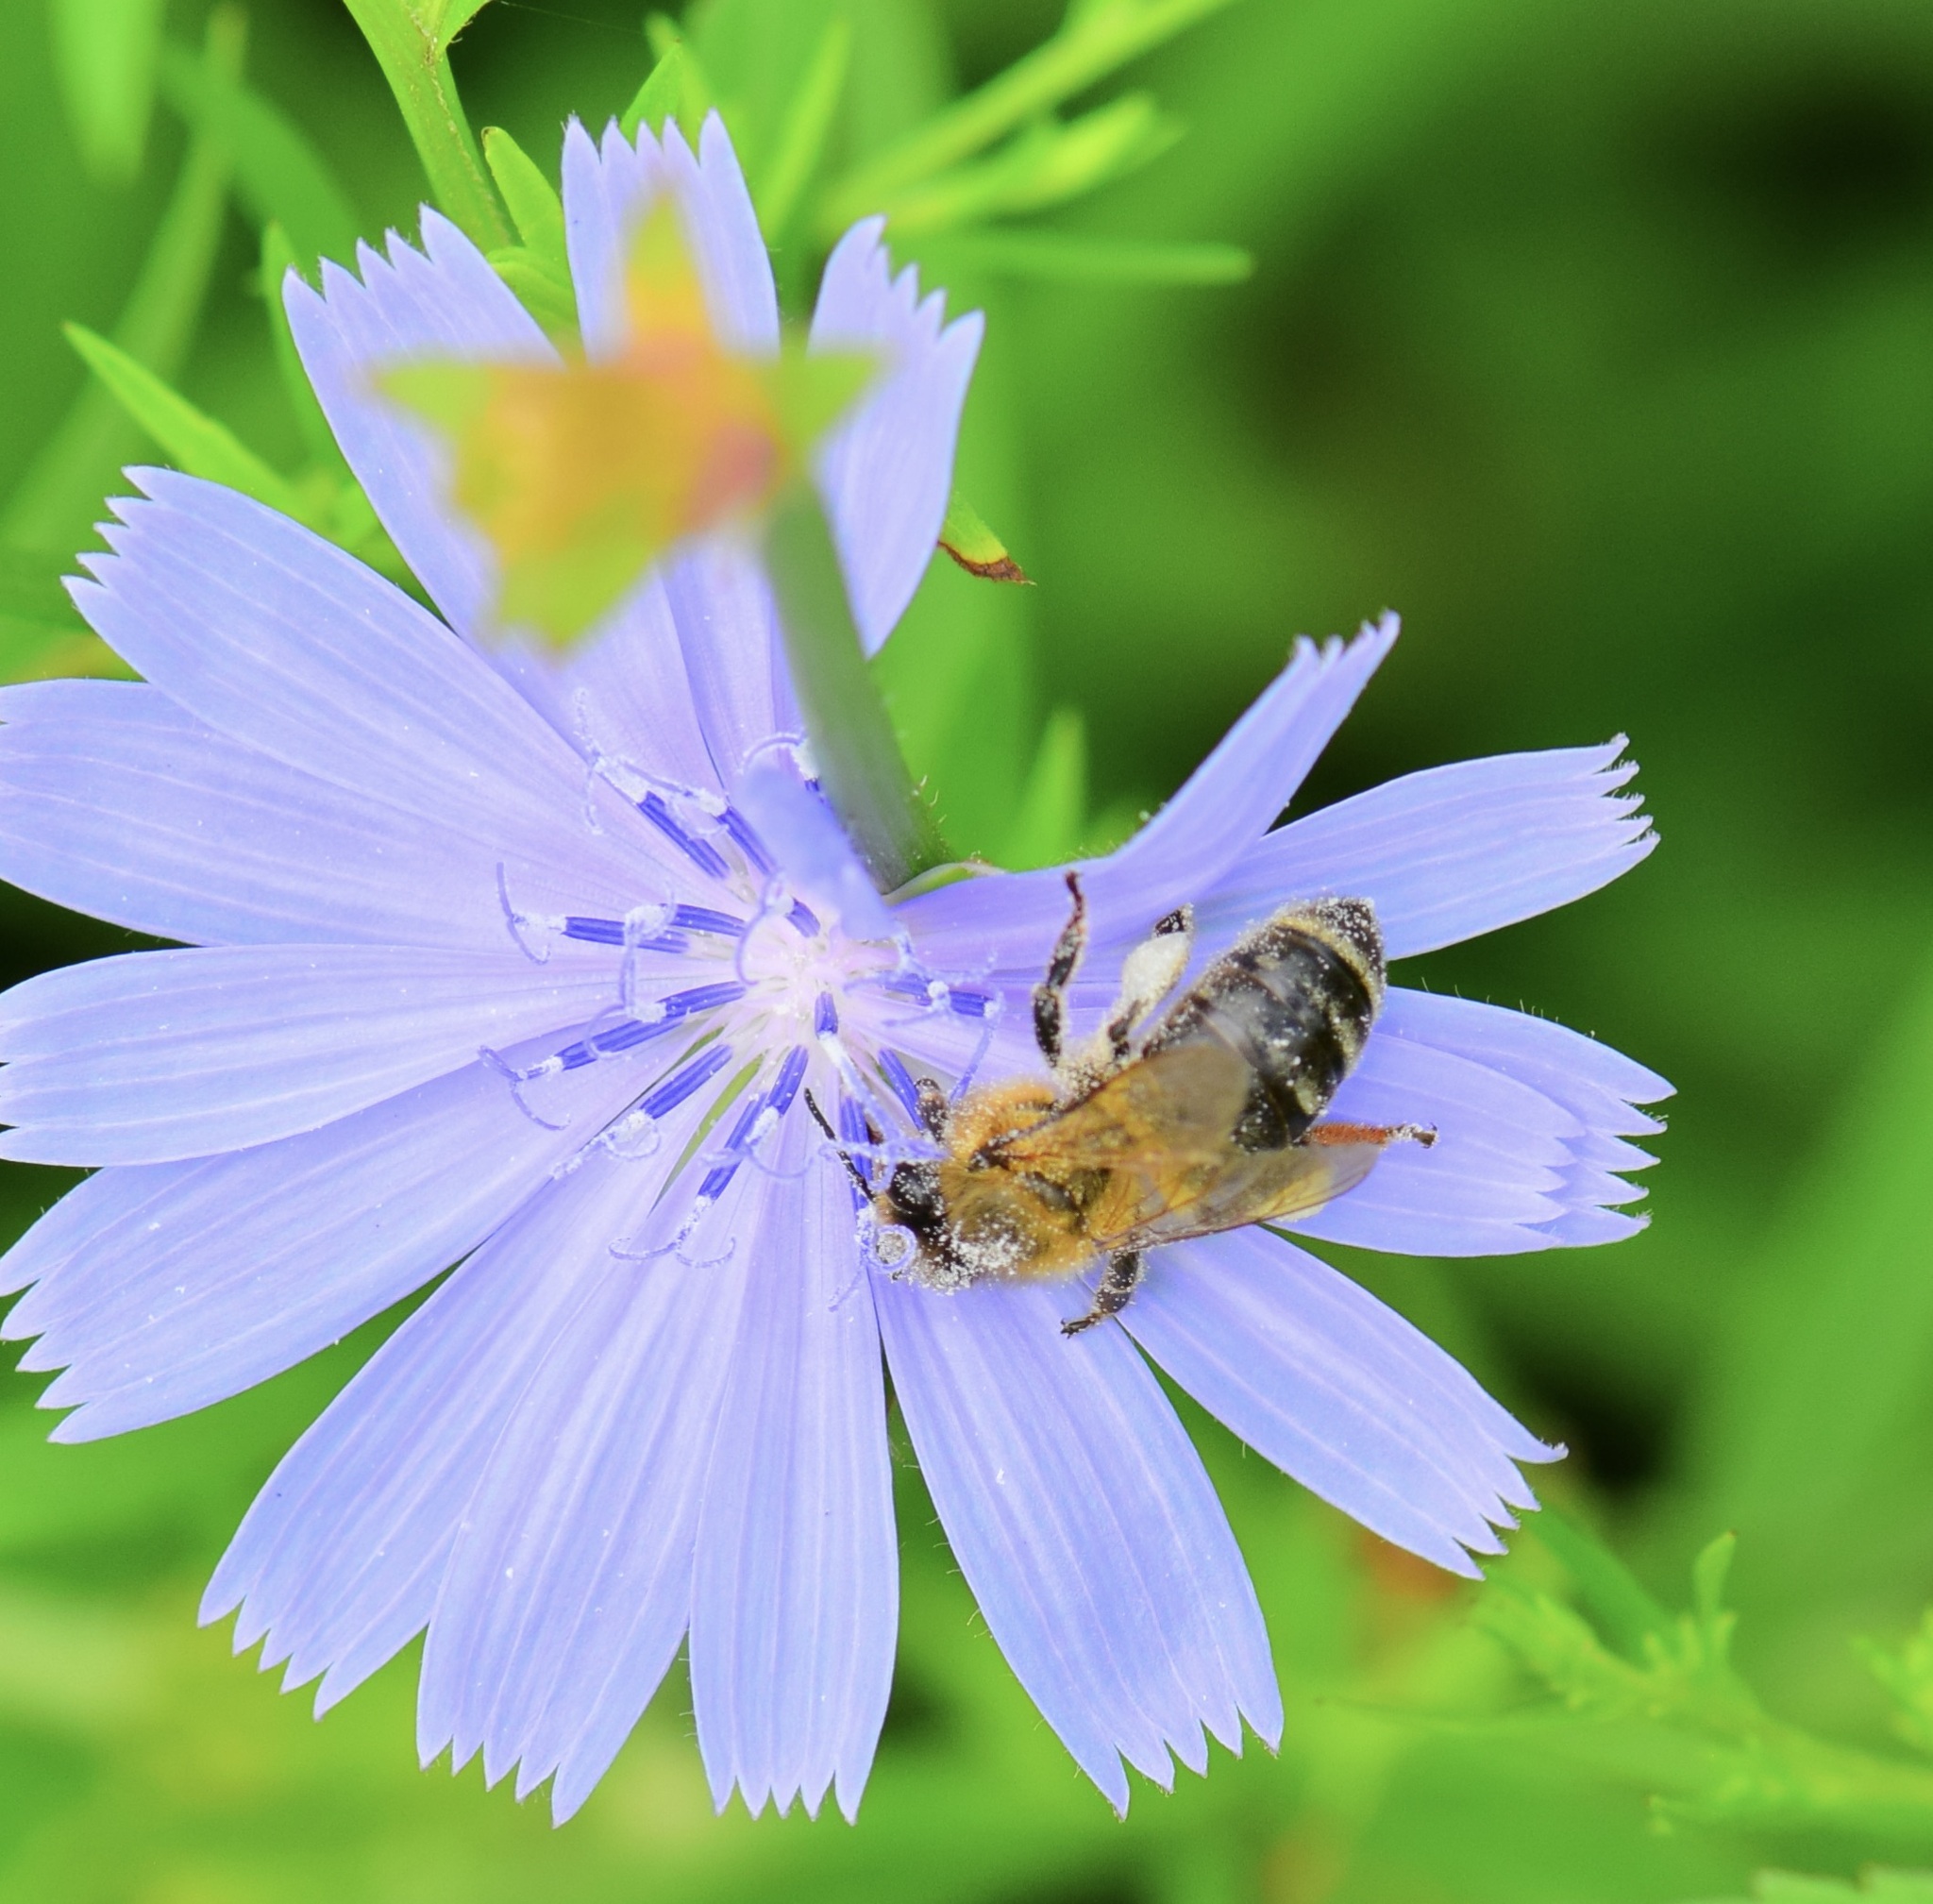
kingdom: Animalia
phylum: Arthropoda
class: Insecta
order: Hymenoptera
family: Apidae
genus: Apis
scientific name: Apis mellifera
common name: Honey bee
